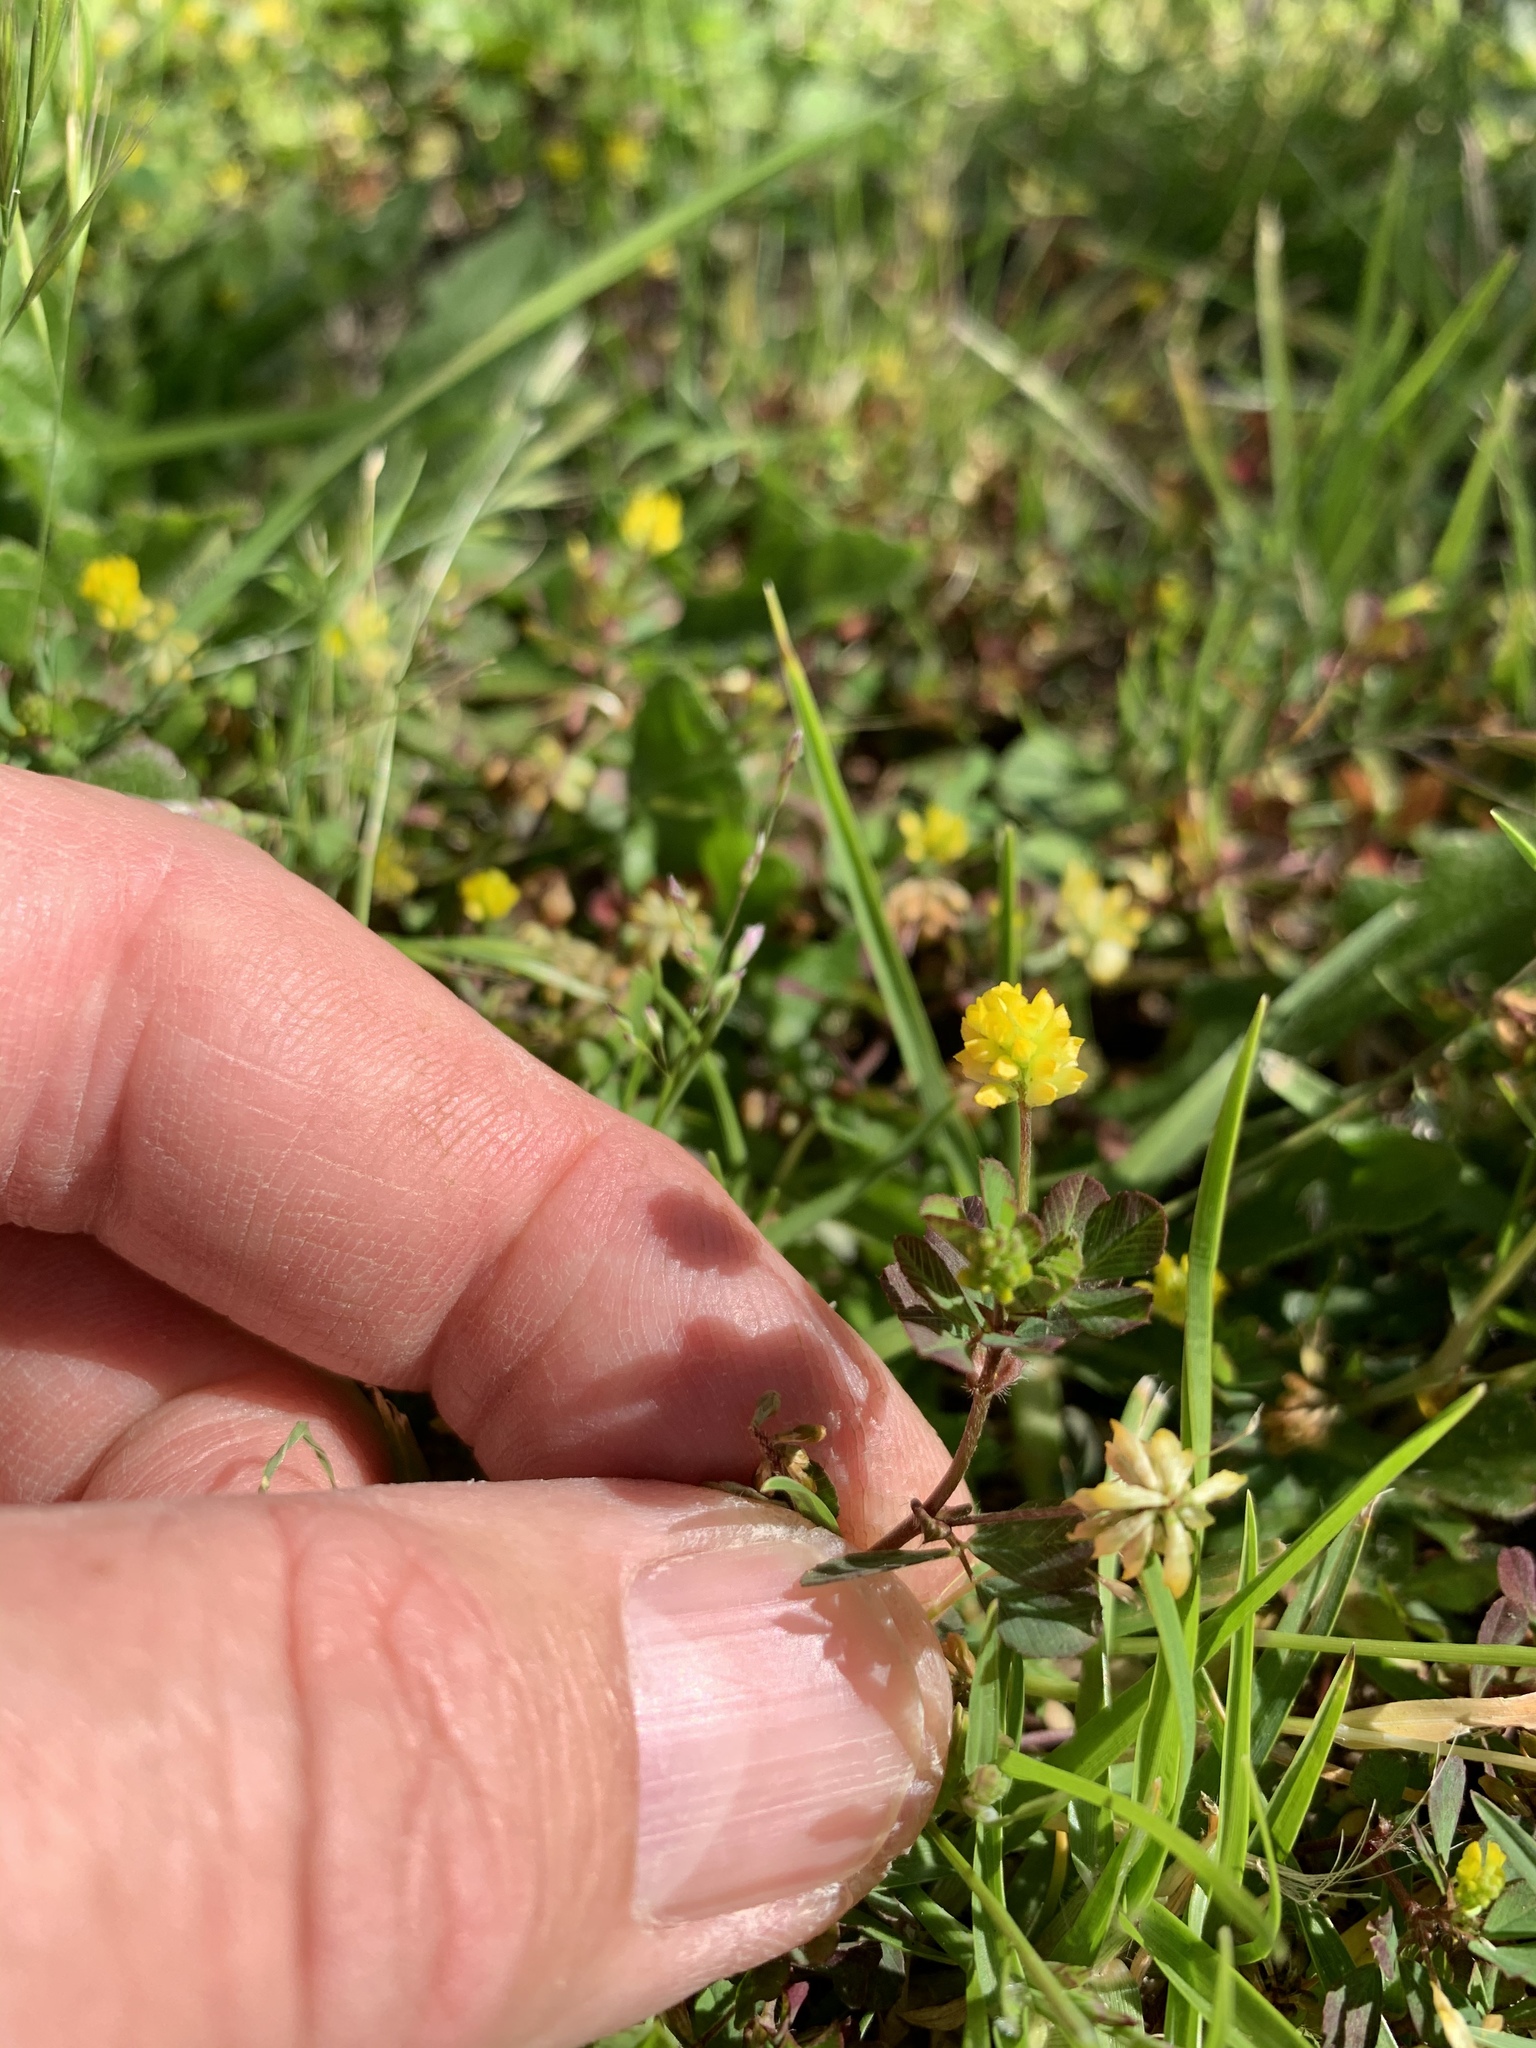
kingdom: Plantae
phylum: Tracheophyta
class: Magnoliopsida
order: Fabales
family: Fabaceae
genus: Trifolium
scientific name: Trifolium dubium
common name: Suckling clover
